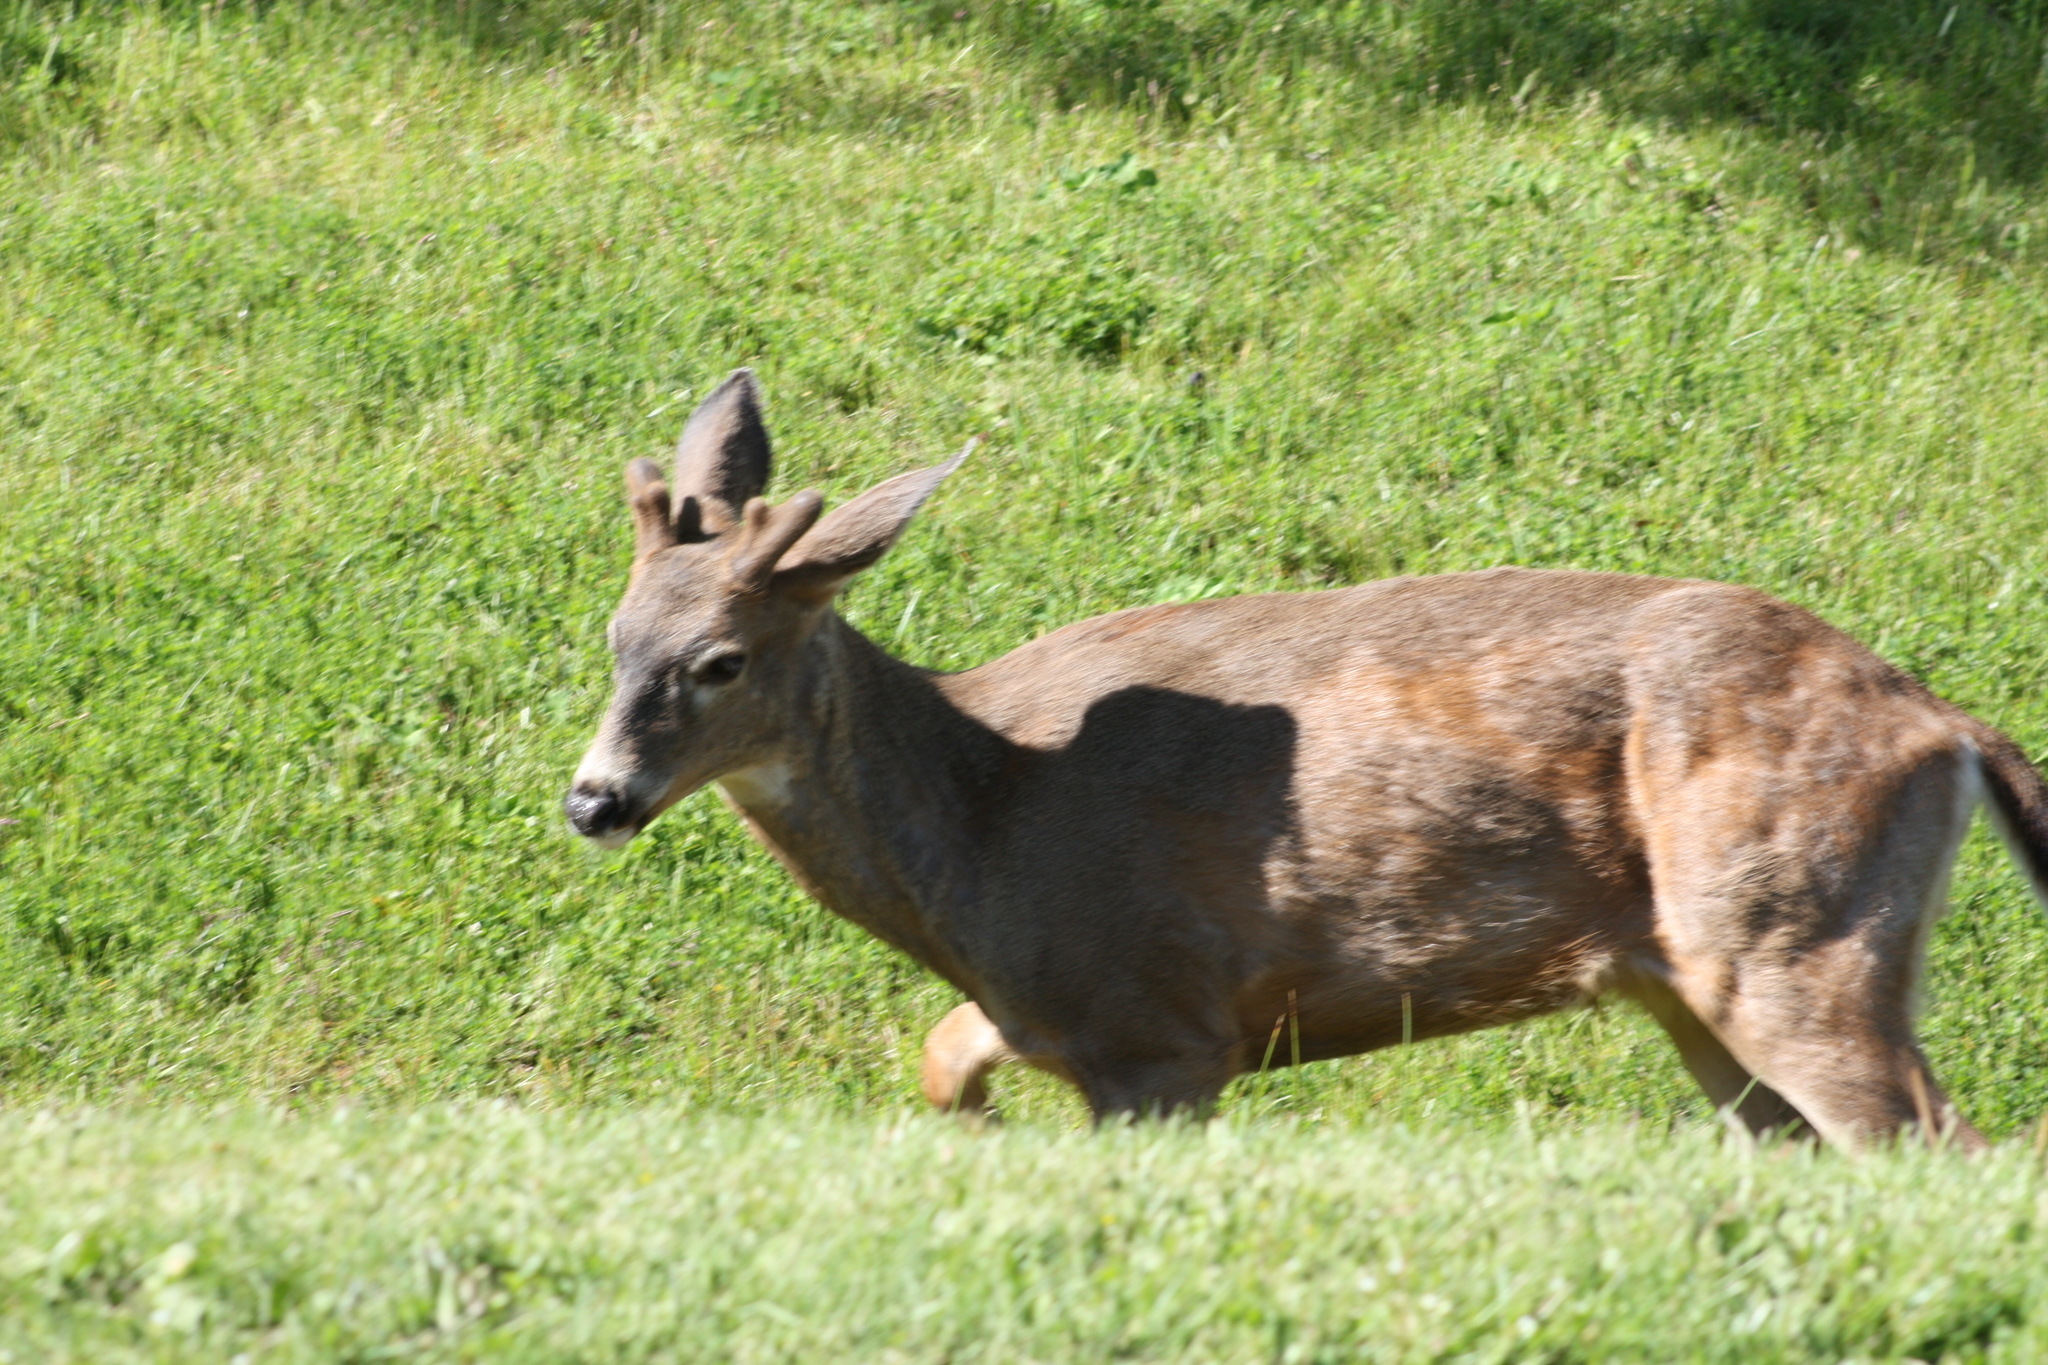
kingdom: Animalia
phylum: Chordata
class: Mammalia
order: Artiodactyla
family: Cervidae
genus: Odocoileus
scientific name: Odocoileus hemionus
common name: Mule deer
